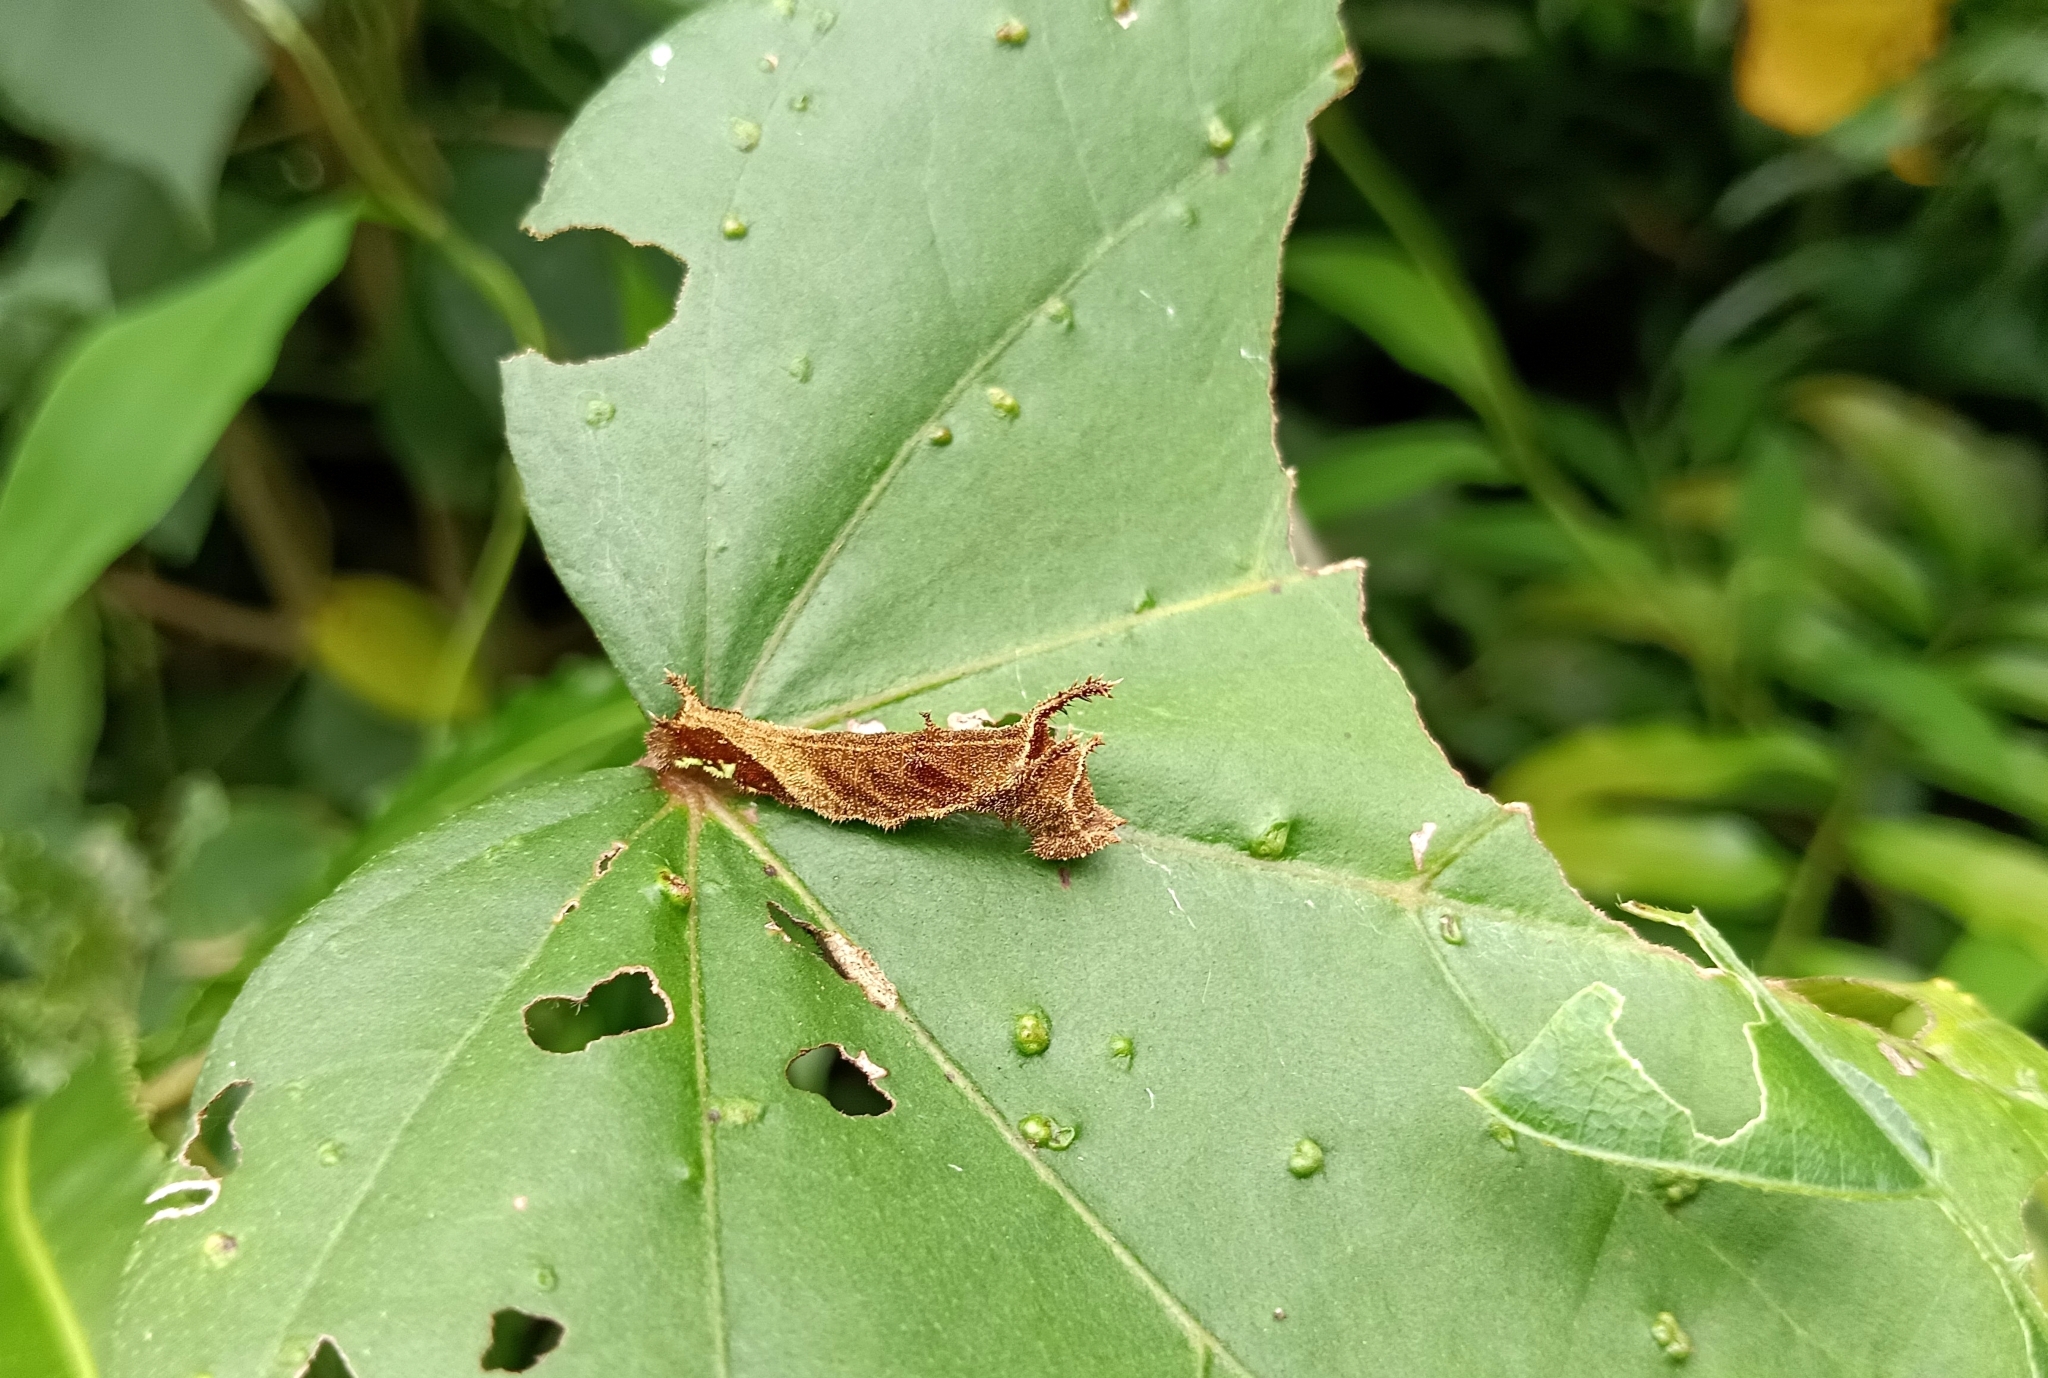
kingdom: Animalia
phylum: Arthropoda
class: Insecta
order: Lepidoptera
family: Nymphalidae
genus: Neptis
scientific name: Neptis jumbah
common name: Chestnut-streaked sailer
